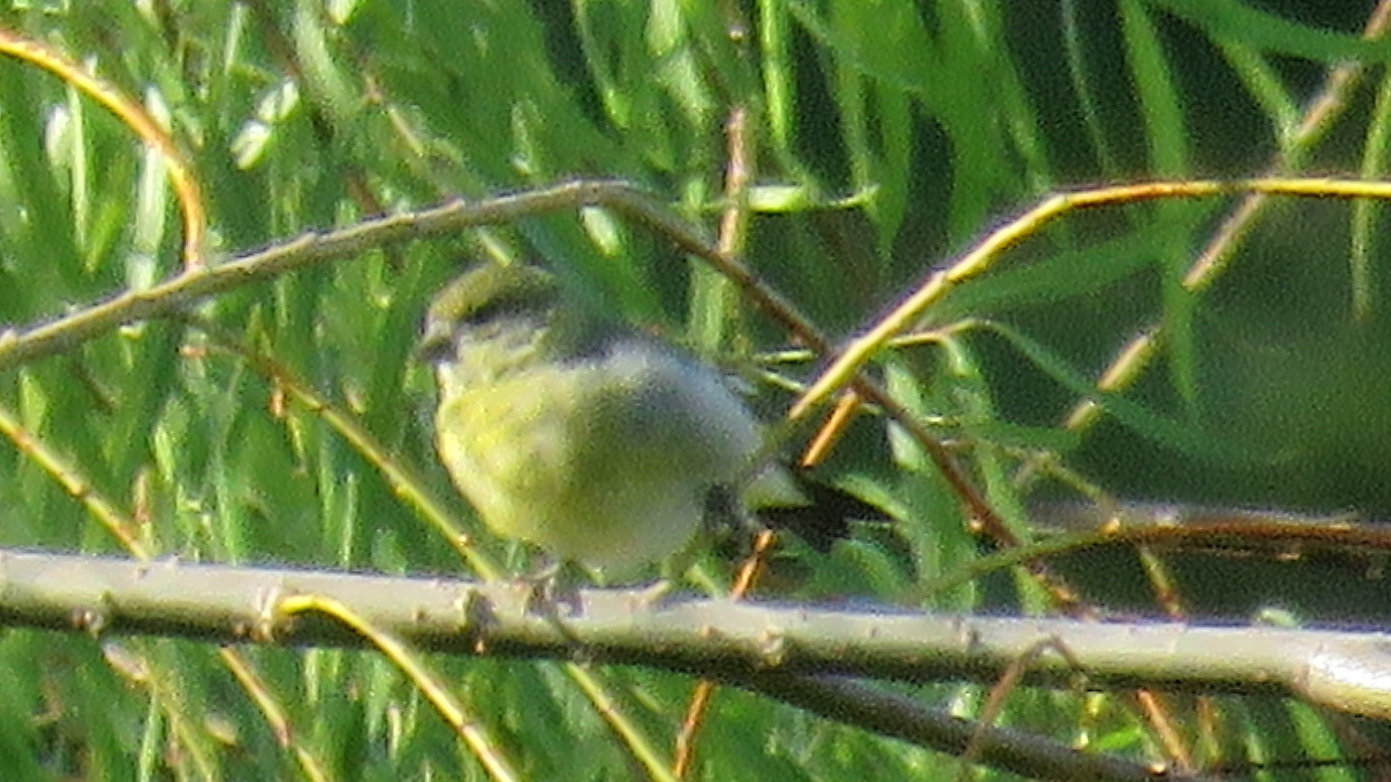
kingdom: Animalia
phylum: Chordata
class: Aves
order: Passeriformes
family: Fringillidae
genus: Spinus
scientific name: Spinus magellanicus
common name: Hooded siskin
